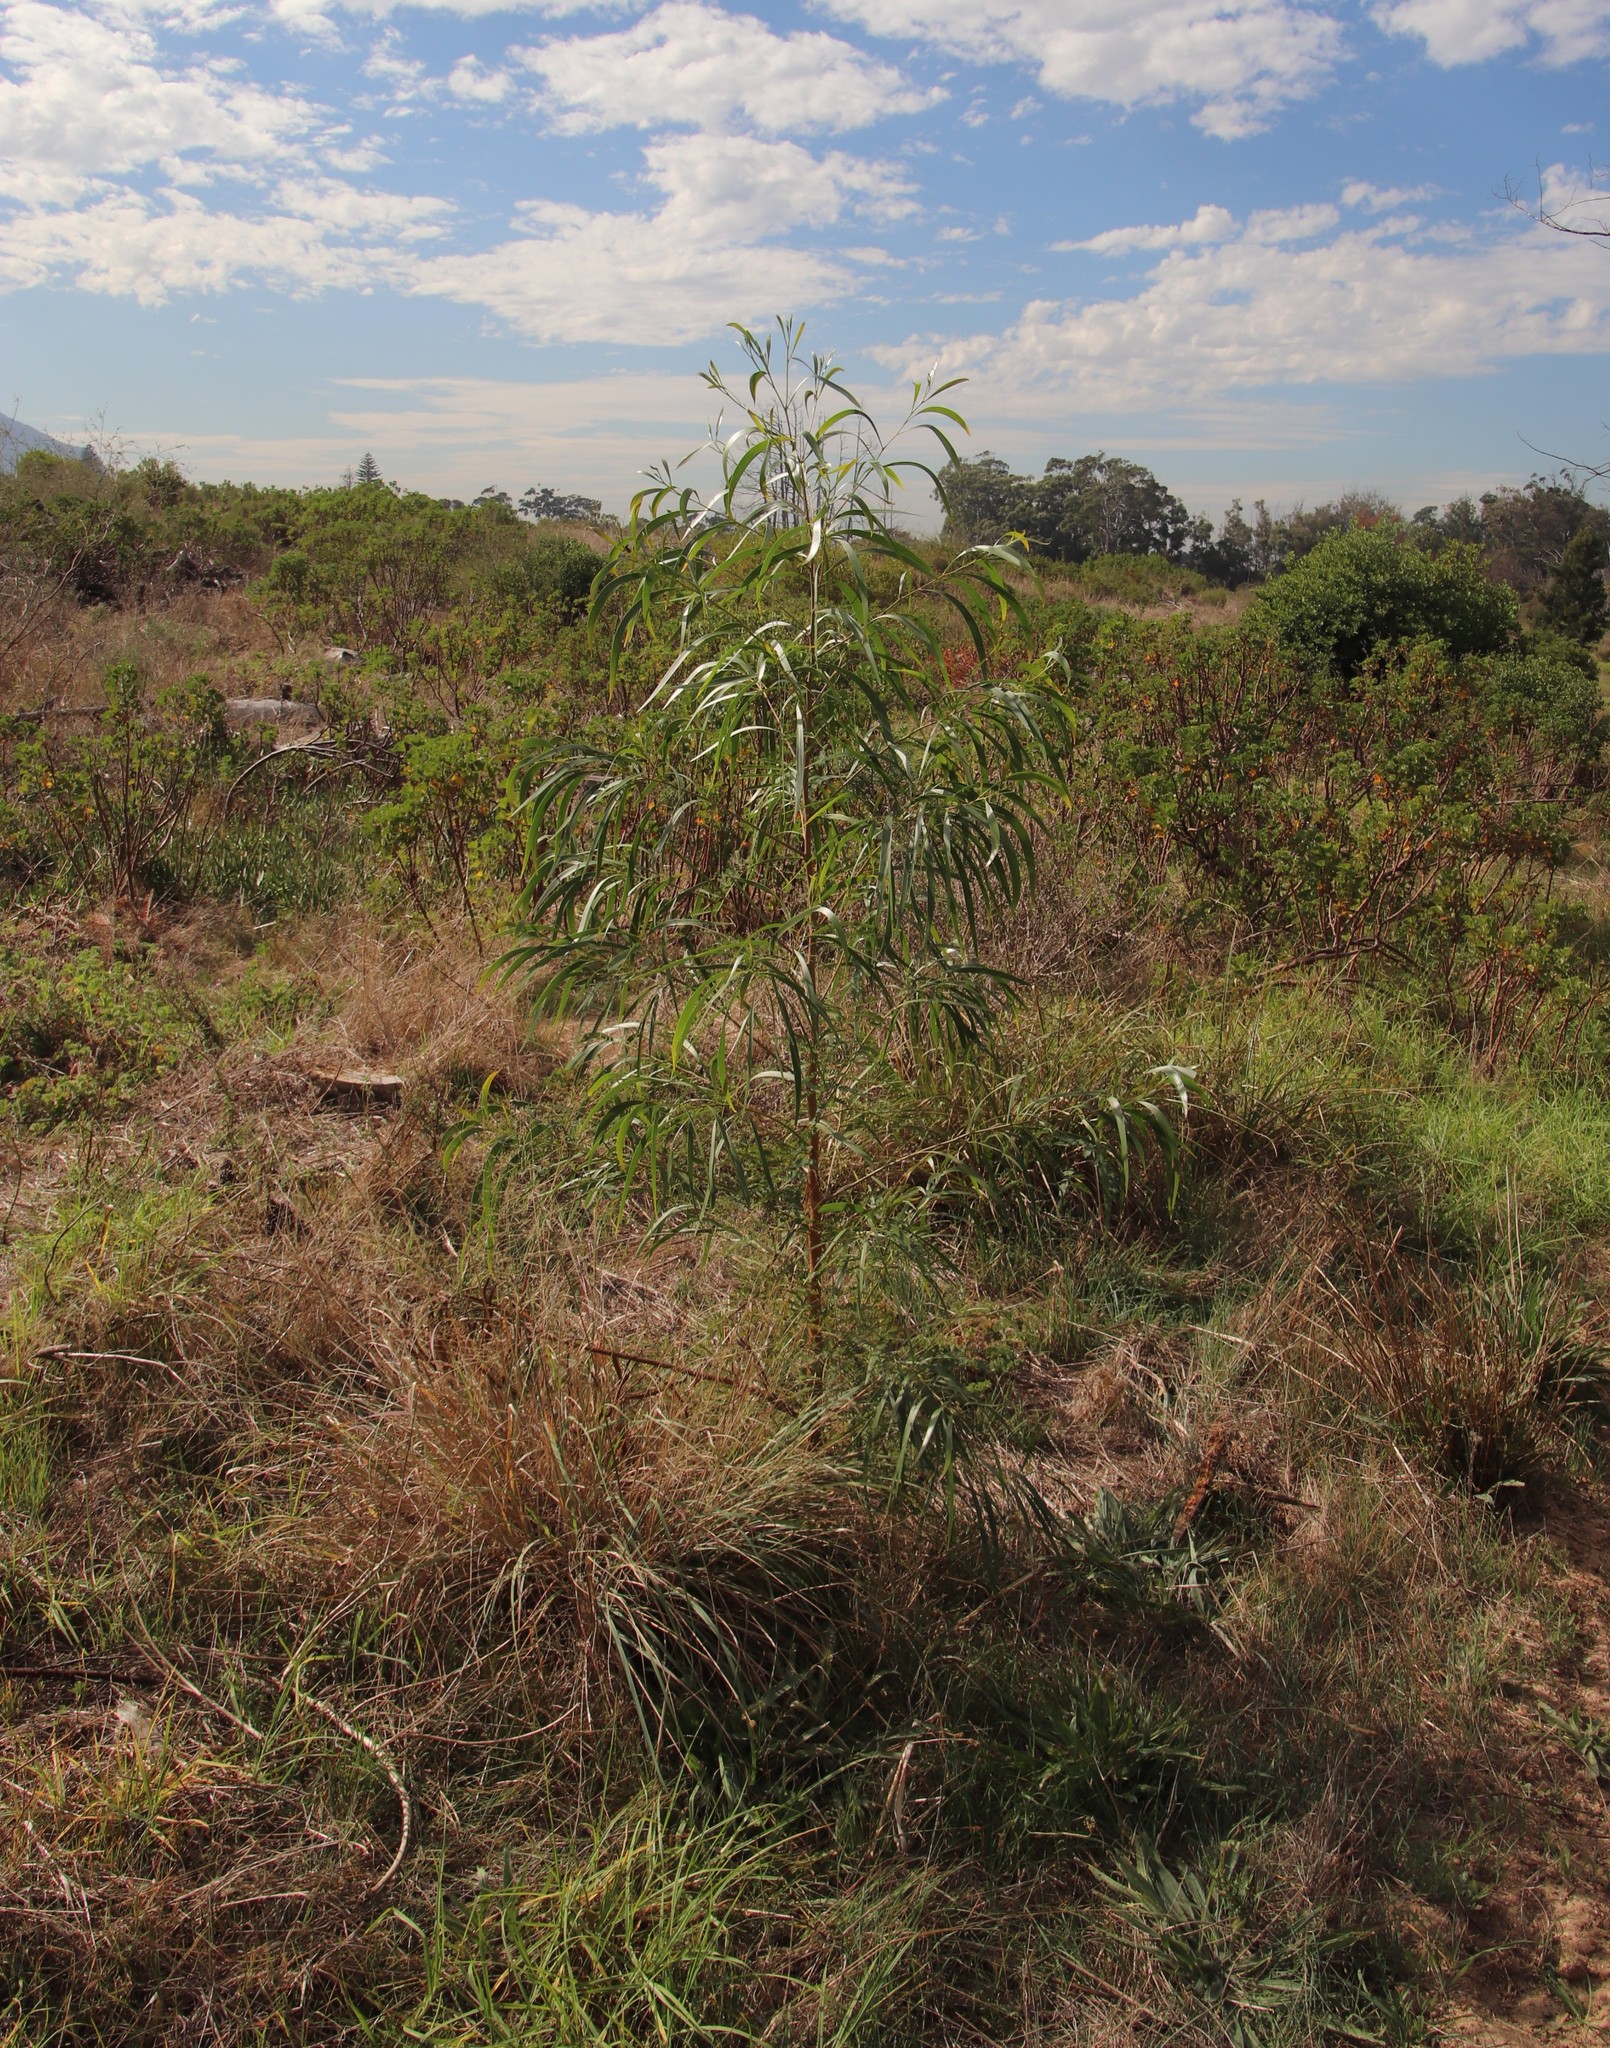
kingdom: Plantae
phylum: Tracheophyta
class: Magnoliopsida
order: Fabales
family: Fabaceae
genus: Acacia
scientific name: Acacia implexa
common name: Black wattle
